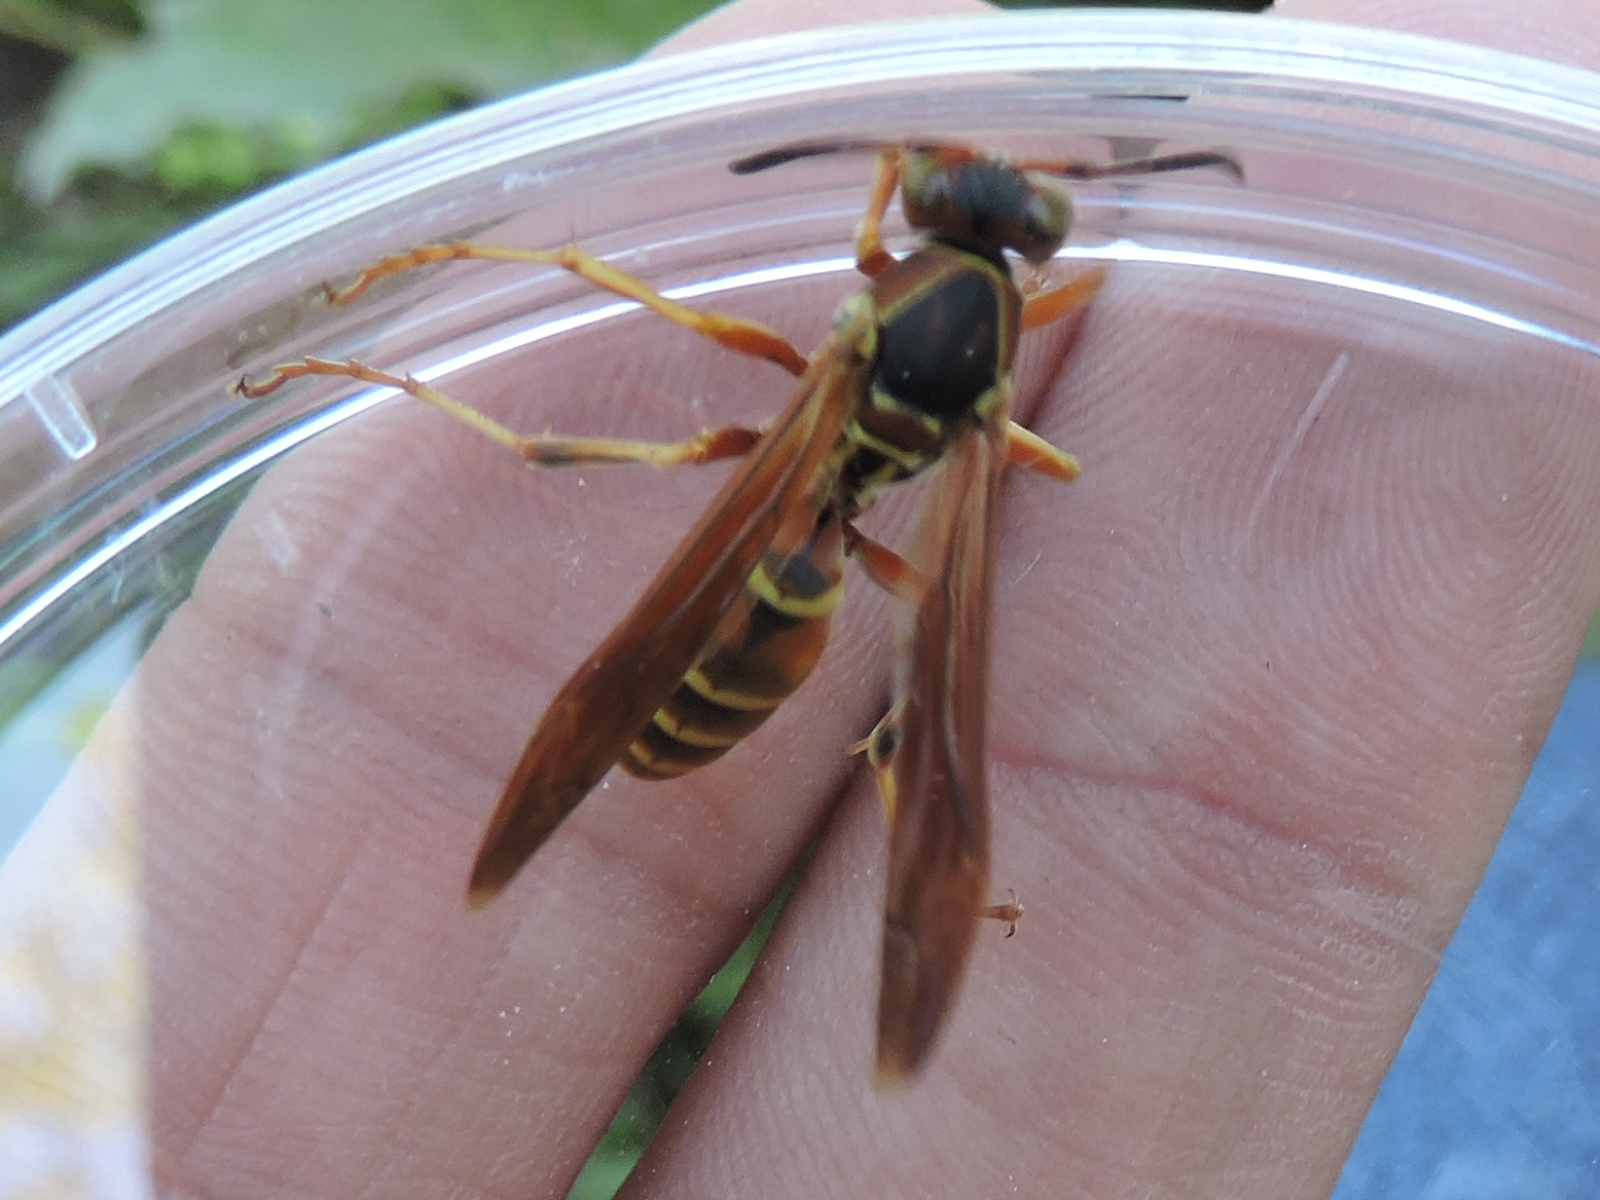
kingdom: Animalia
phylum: Arthropoda
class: Insecta
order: Hymenoptera
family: Eumenidae
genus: Polistes
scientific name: Polistes fuscatus
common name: Dark paper wasp
